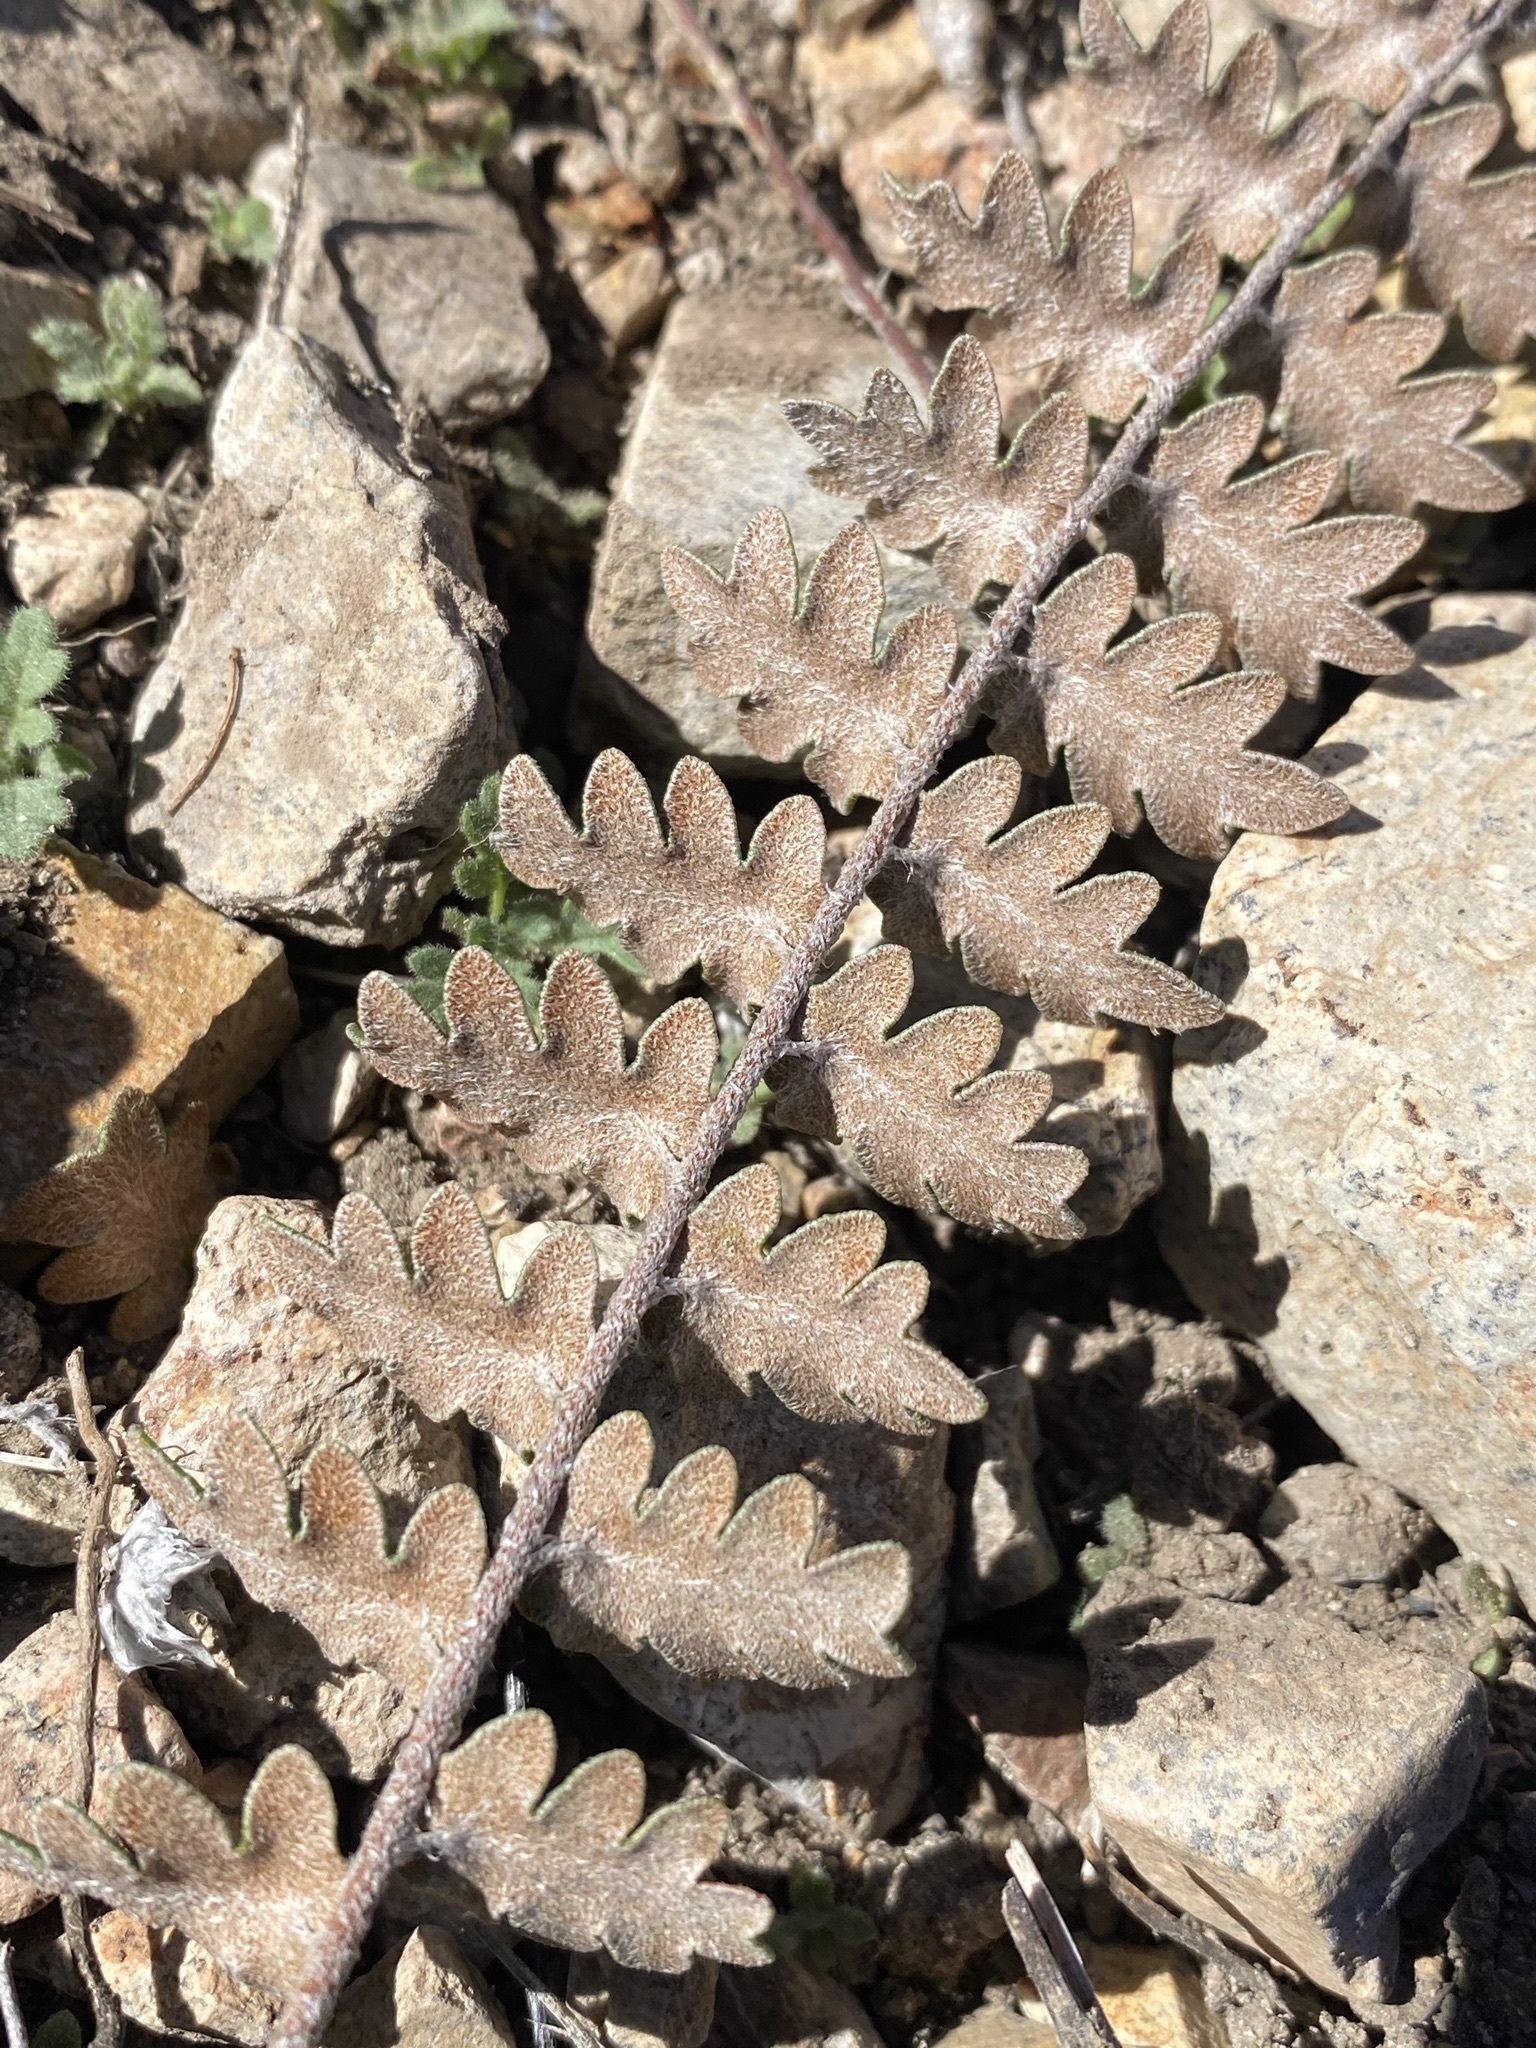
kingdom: Plantae
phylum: Tracheophyta
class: Polypodiopsida
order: Polypodiales
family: Pteridaceae
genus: Astrolepis
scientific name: Astrolepis sinuata
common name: Wavy scaly cloakfern
